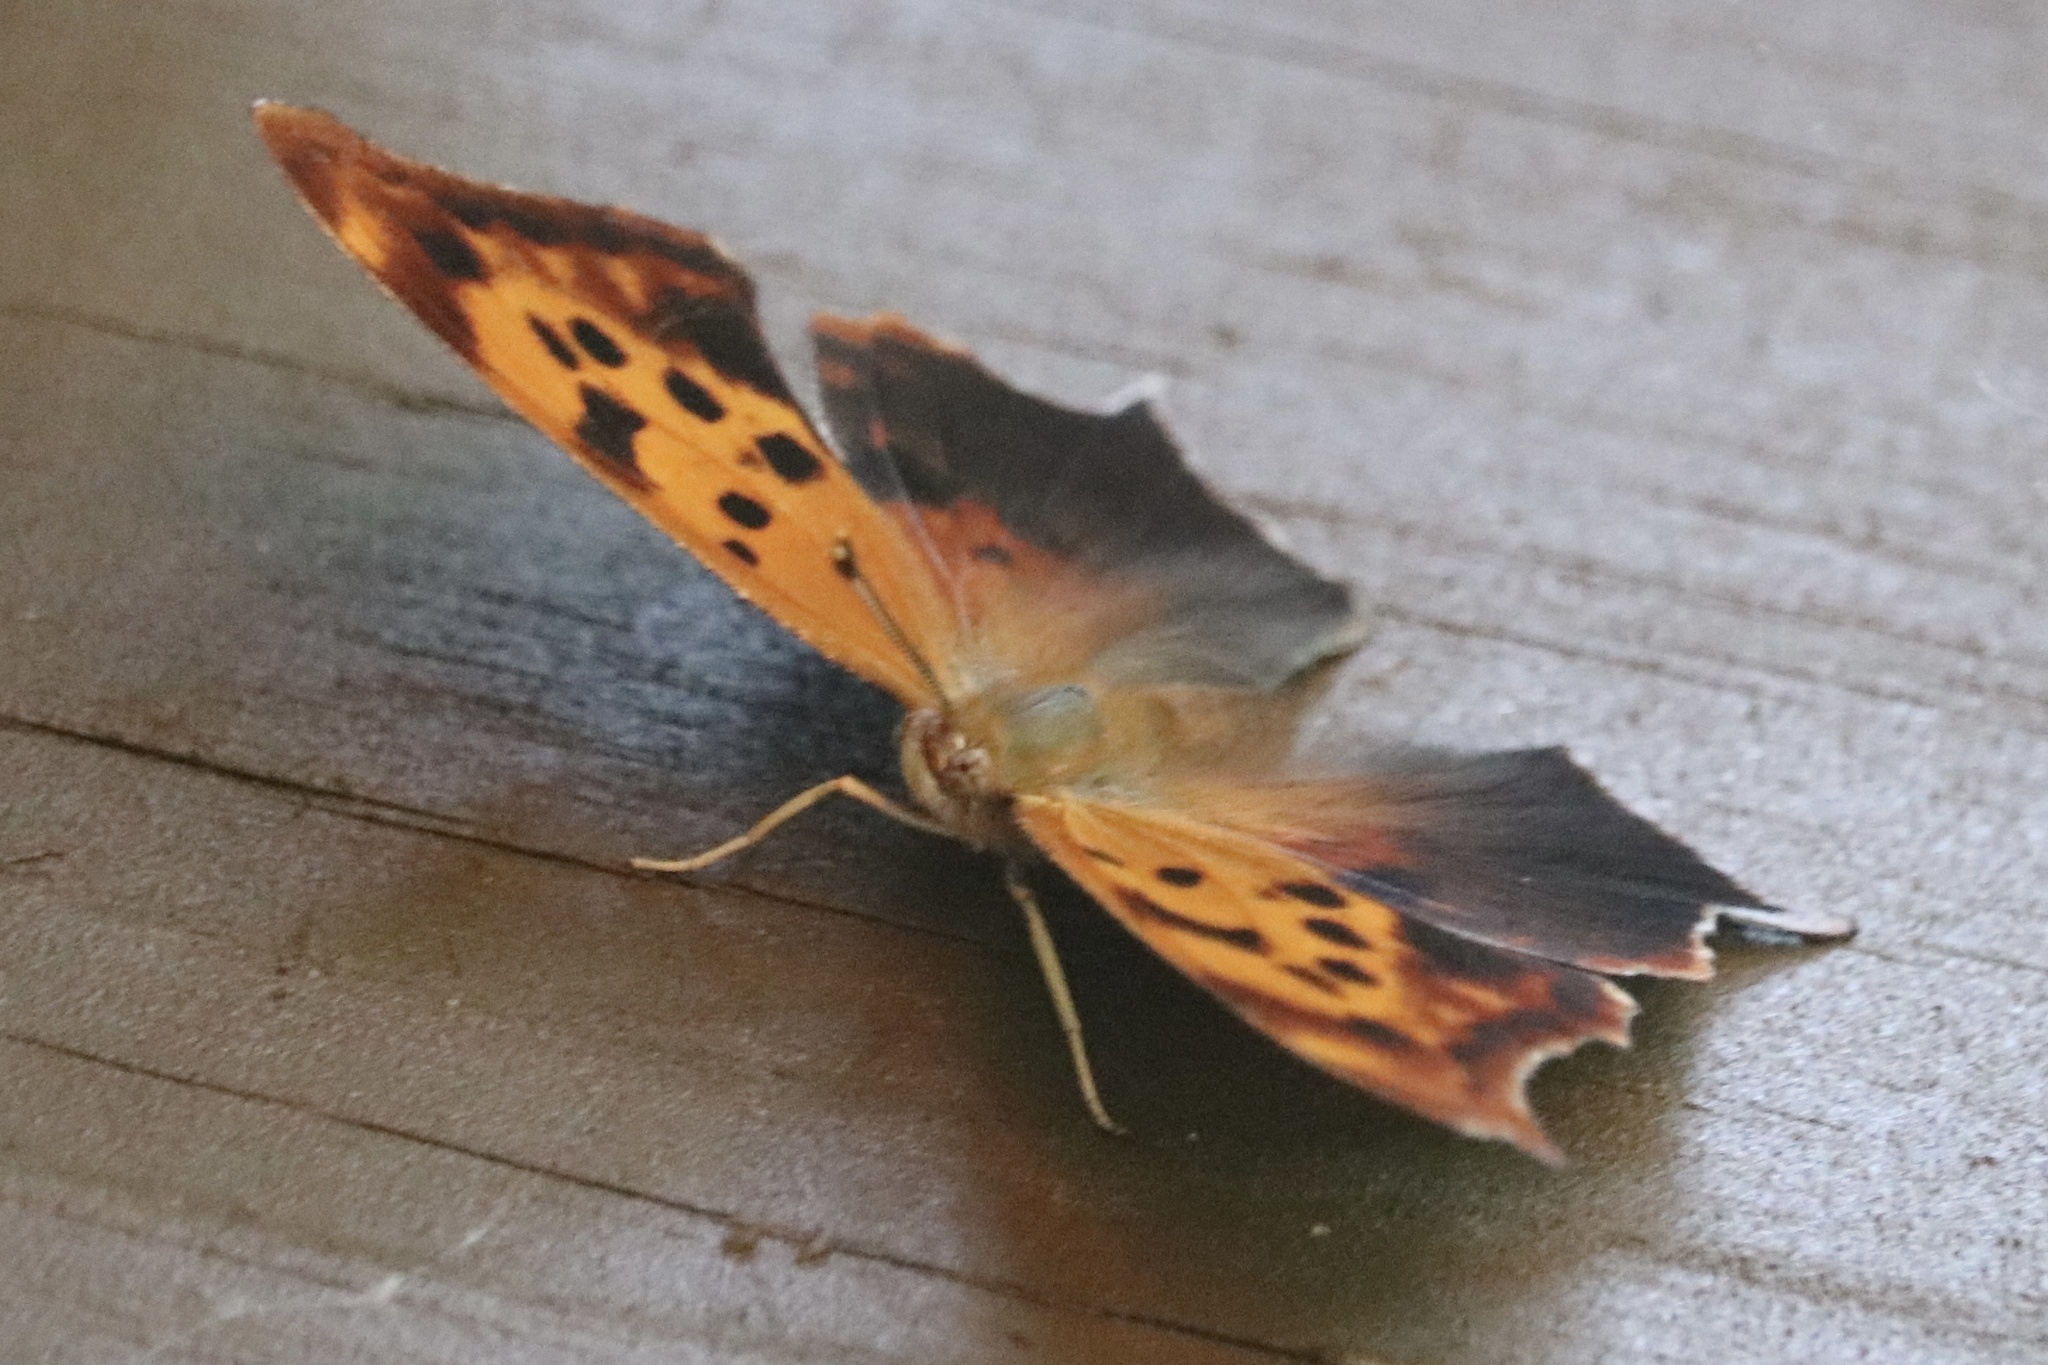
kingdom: Animalia
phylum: Arthropoda
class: Insecta
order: Lepidoptera
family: Nymphalidae
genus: Polygonia
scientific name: Polygonia interrogationis
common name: Question mark
